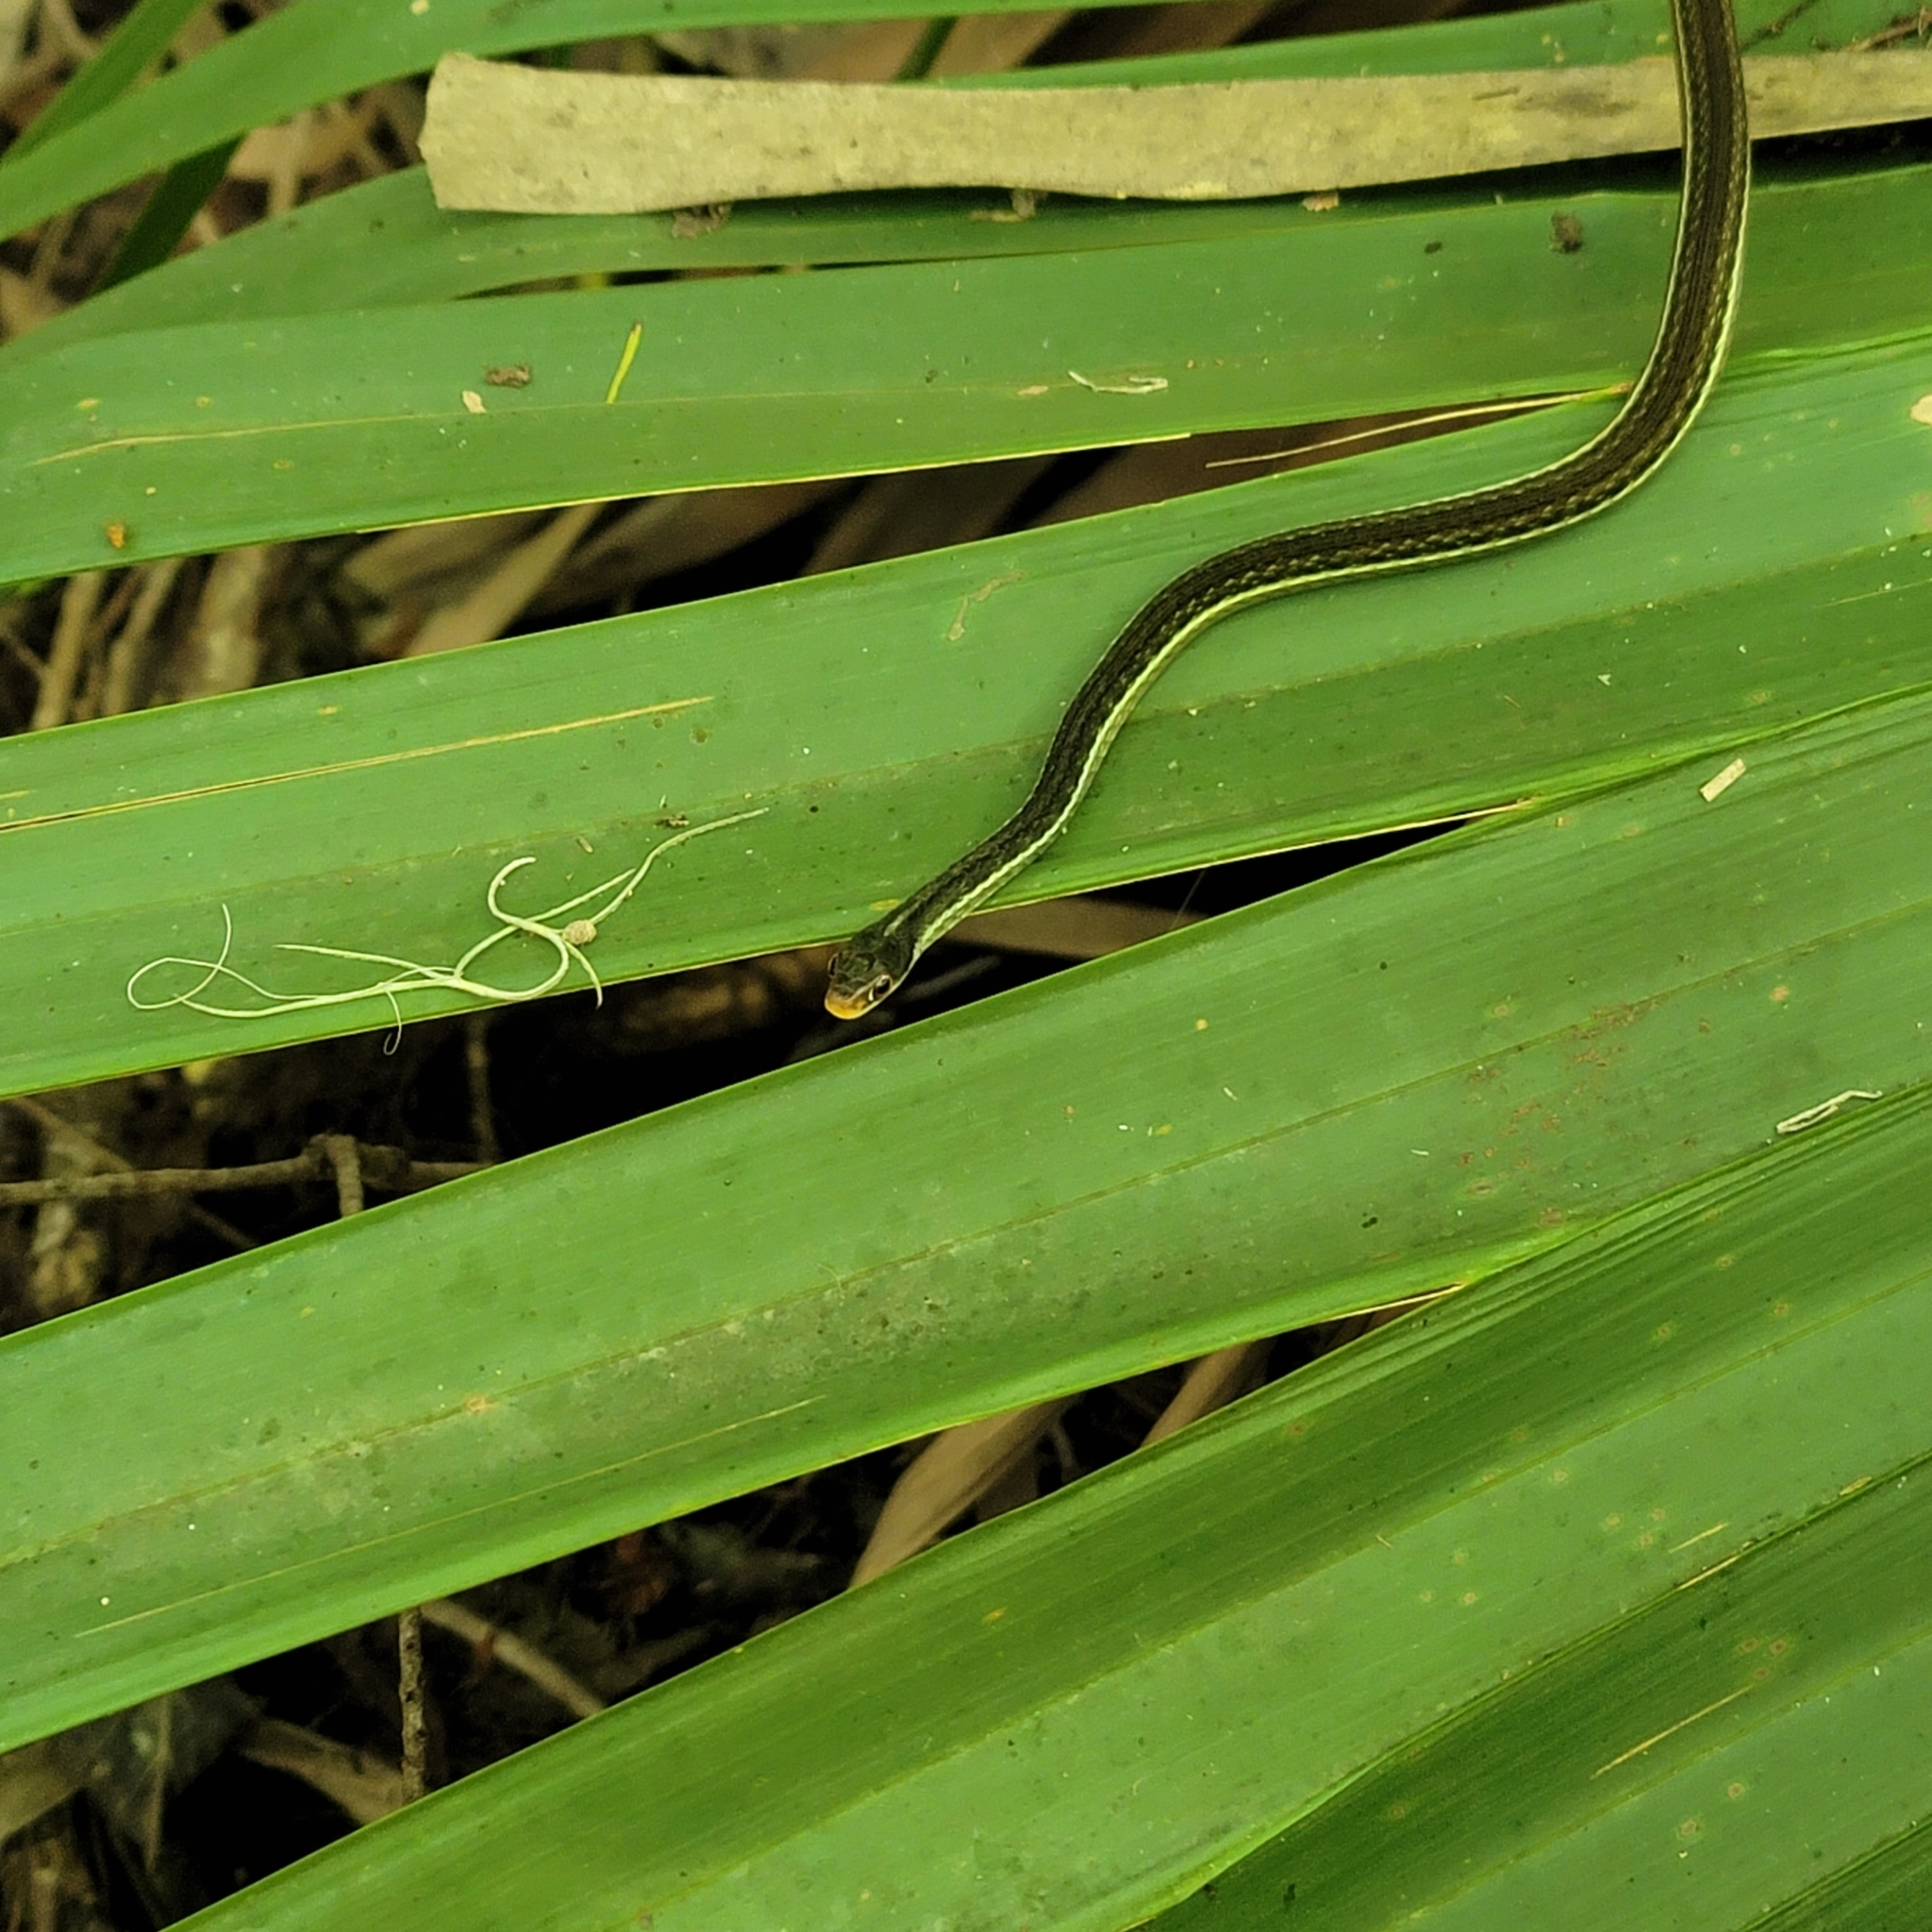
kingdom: Animalia
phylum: Chordata
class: Squamata
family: Colubridae
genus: Thamnophis
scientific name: Thamnophis saurita
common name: Eastern ribbonsnake
